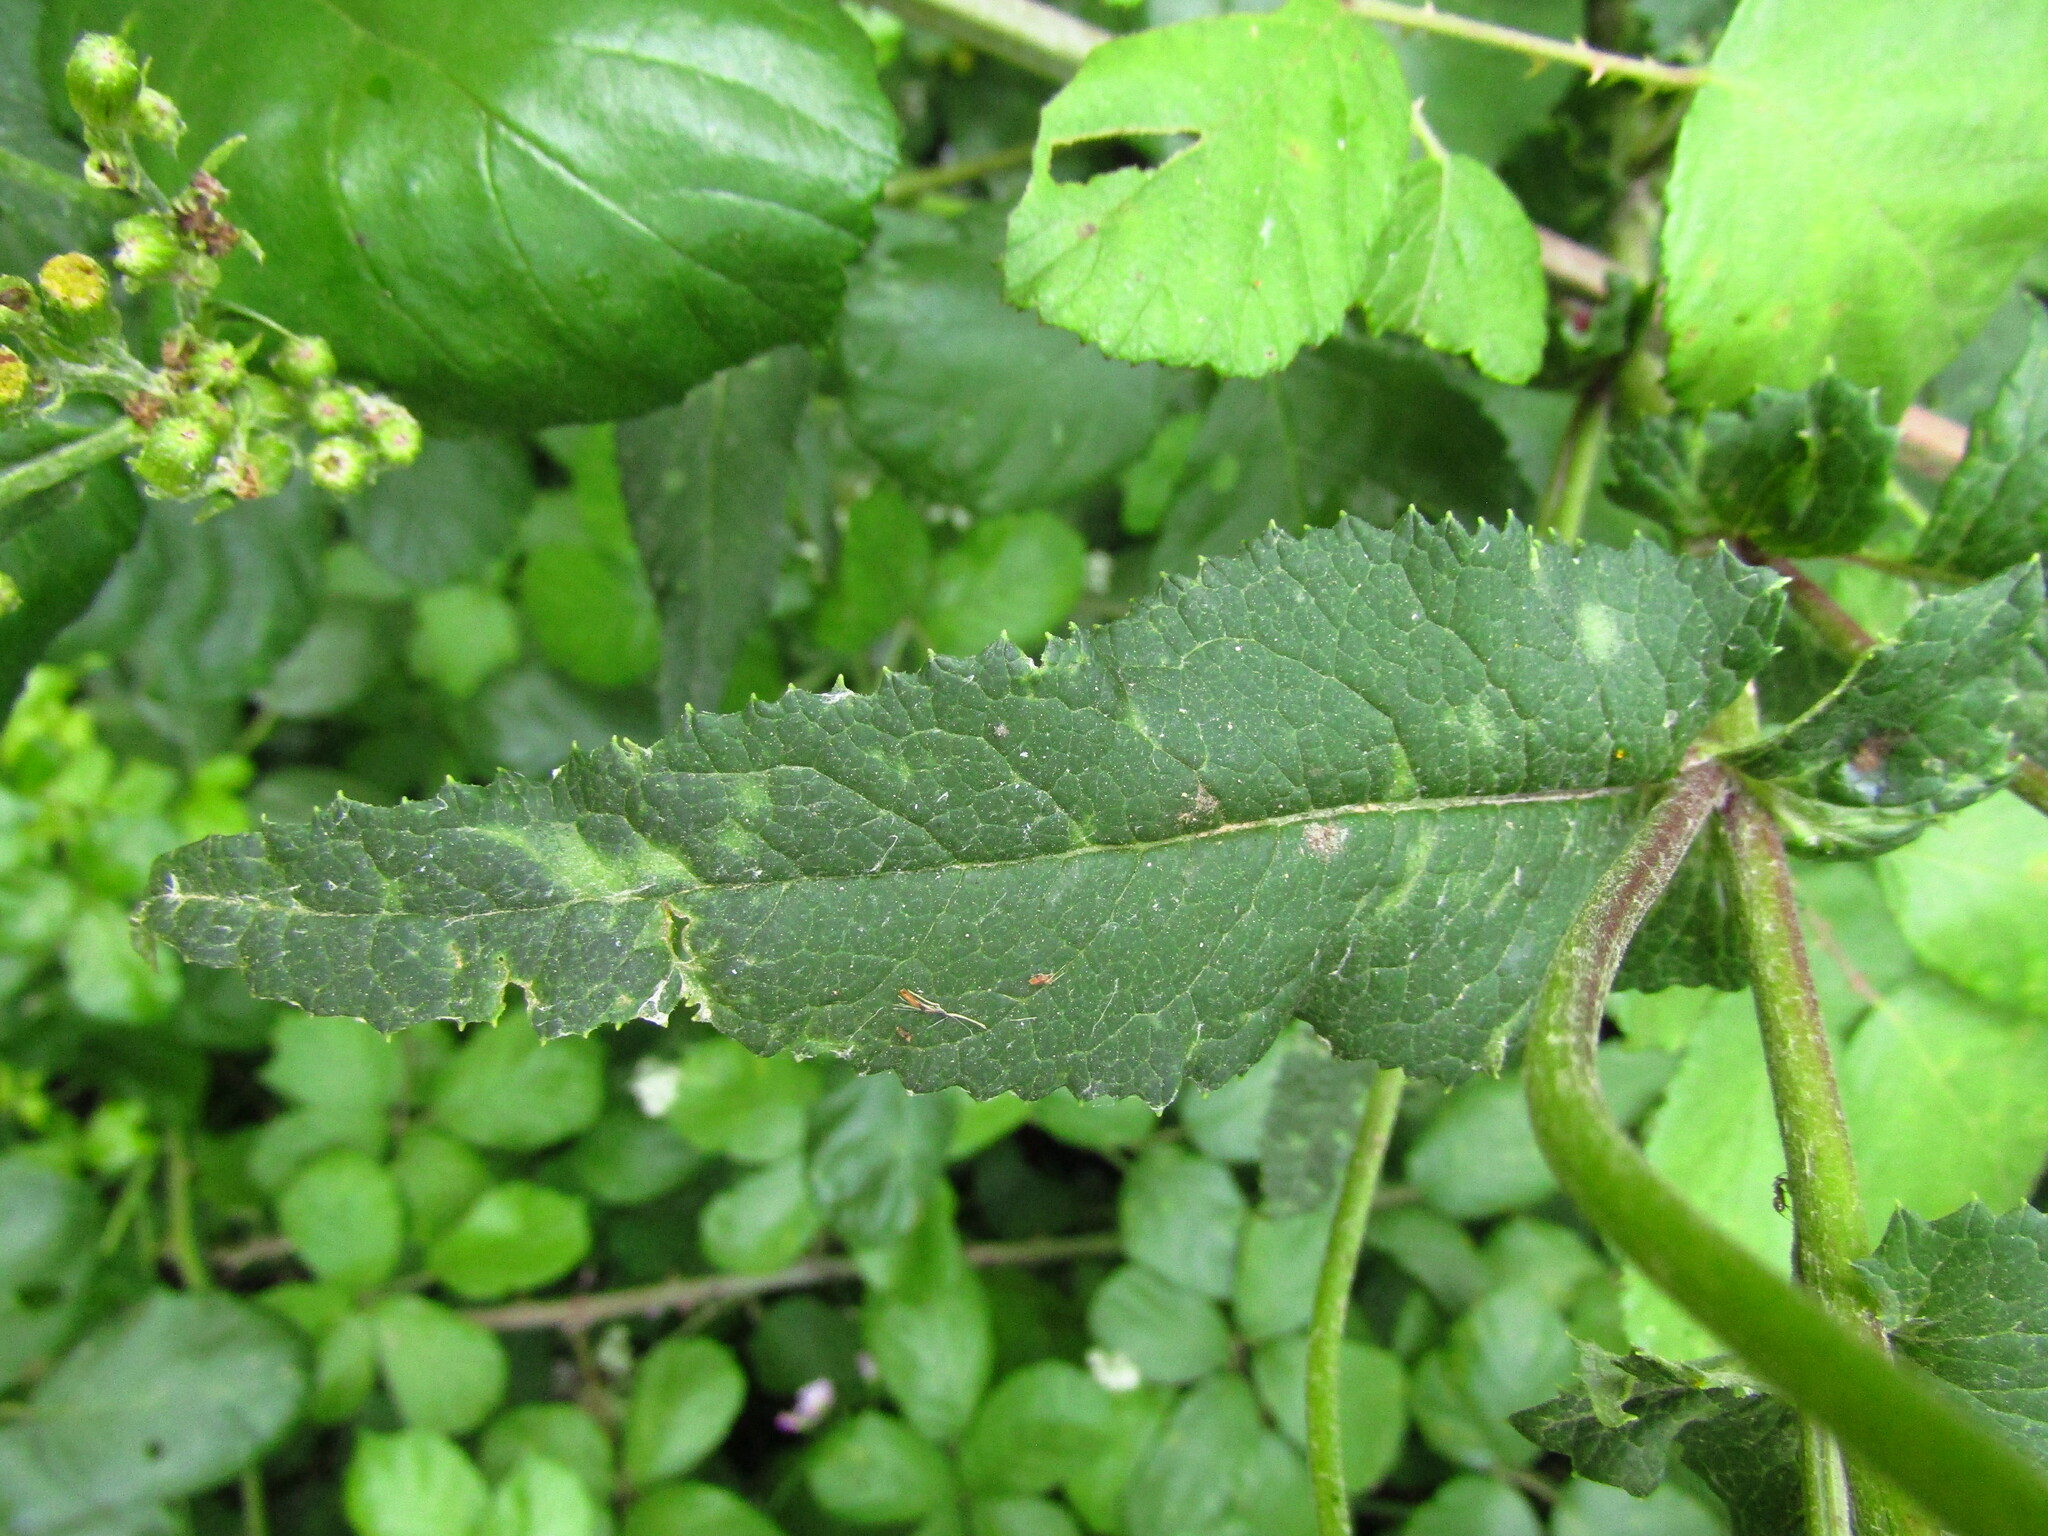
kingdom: Plantae
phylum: Tracheophyta
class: Magnoliopsida
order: Asterales
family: Asteraceae
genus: Senecio
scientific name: Senecio otites
